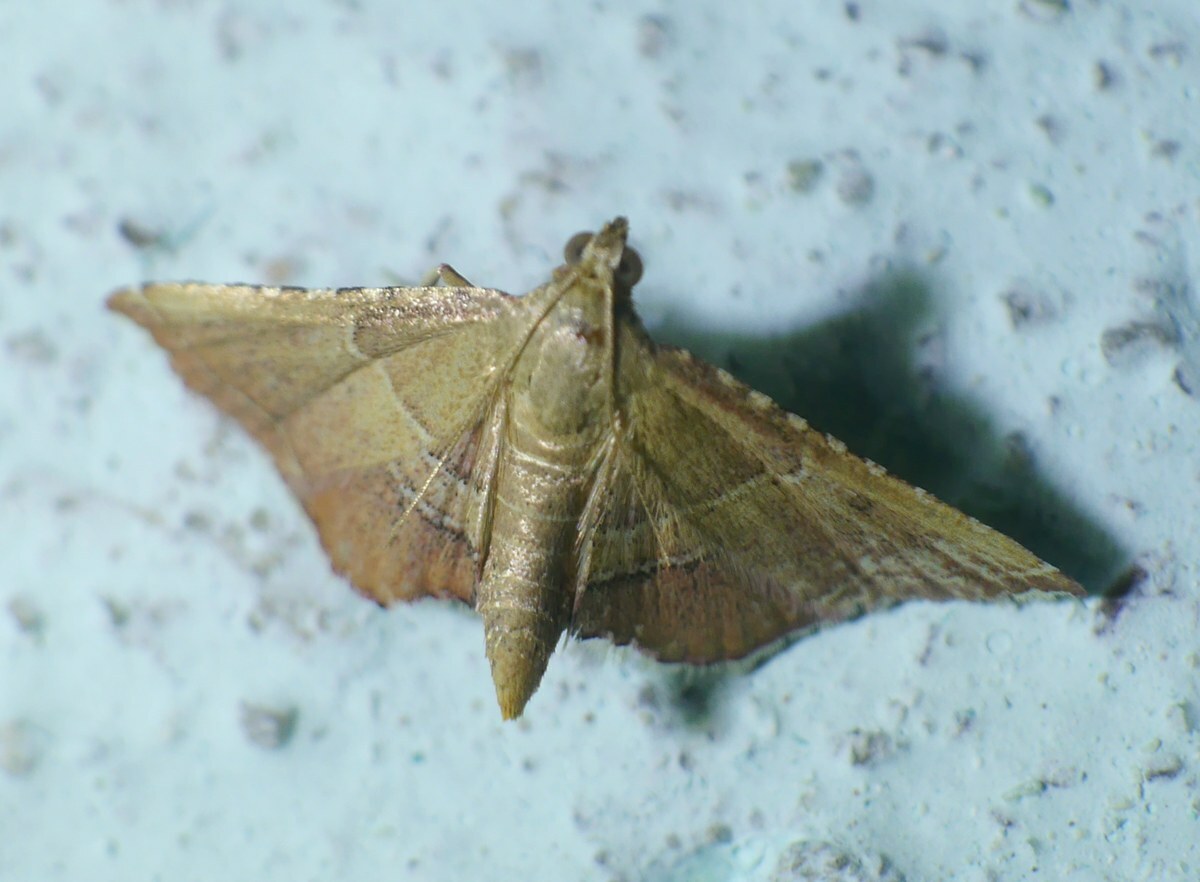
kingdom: Animalia
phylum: Arthropoda
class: Insecta
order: Lepidoptera
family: Pyralidae
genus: Endotricha
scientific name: Endotricha flammealis
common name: Rosy tabby
